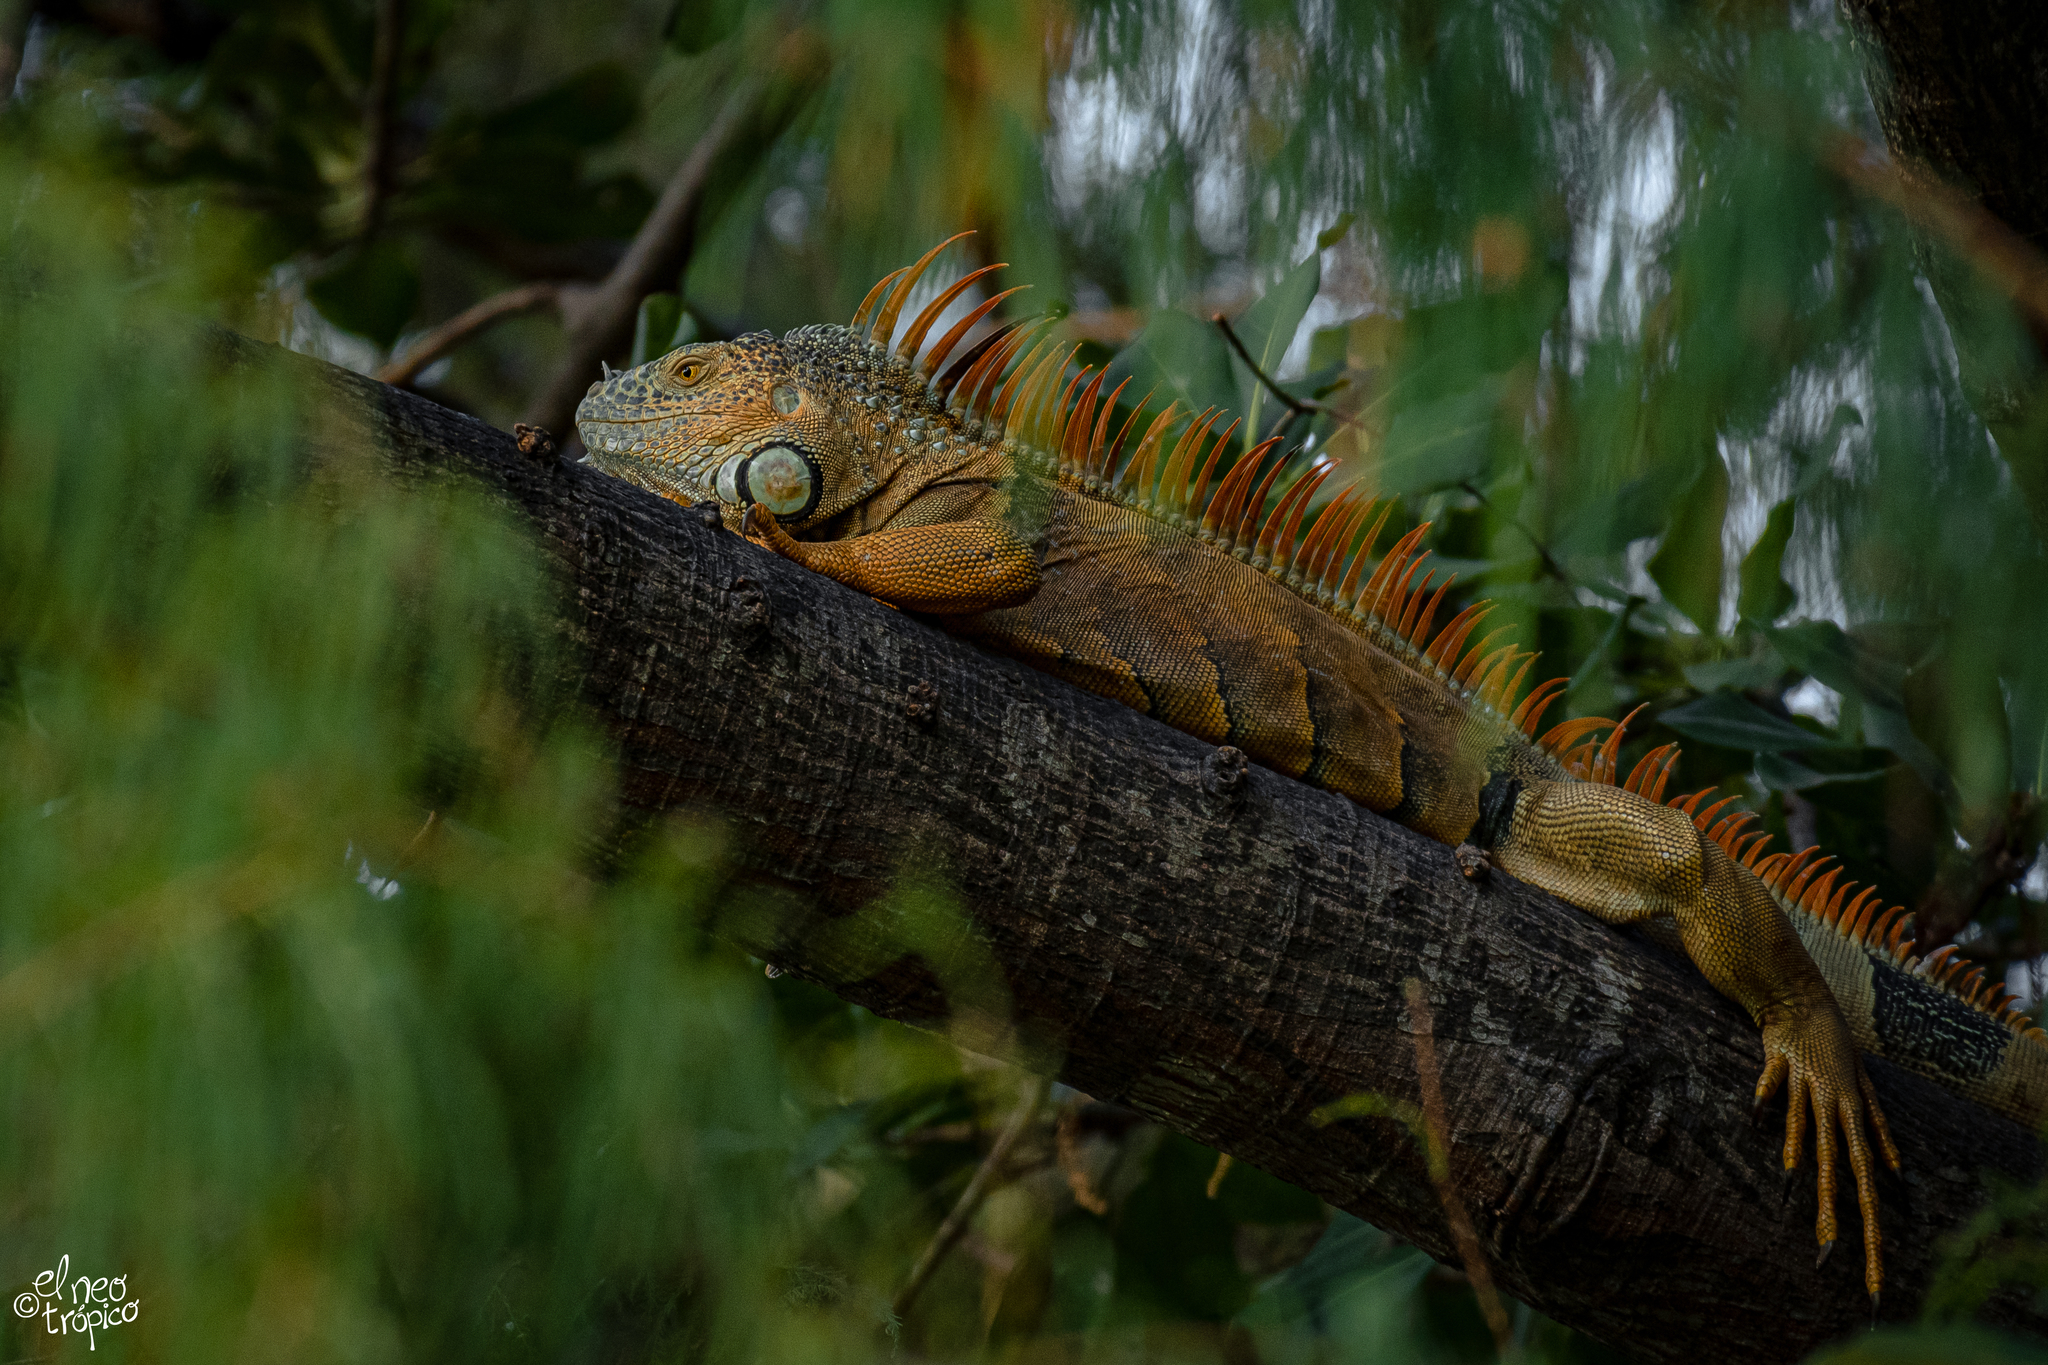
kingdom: Animalia
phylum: Chordata
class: Squamata
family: Iguanidae
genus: Iguana
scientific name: Iguana iguana
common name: Green iguana
